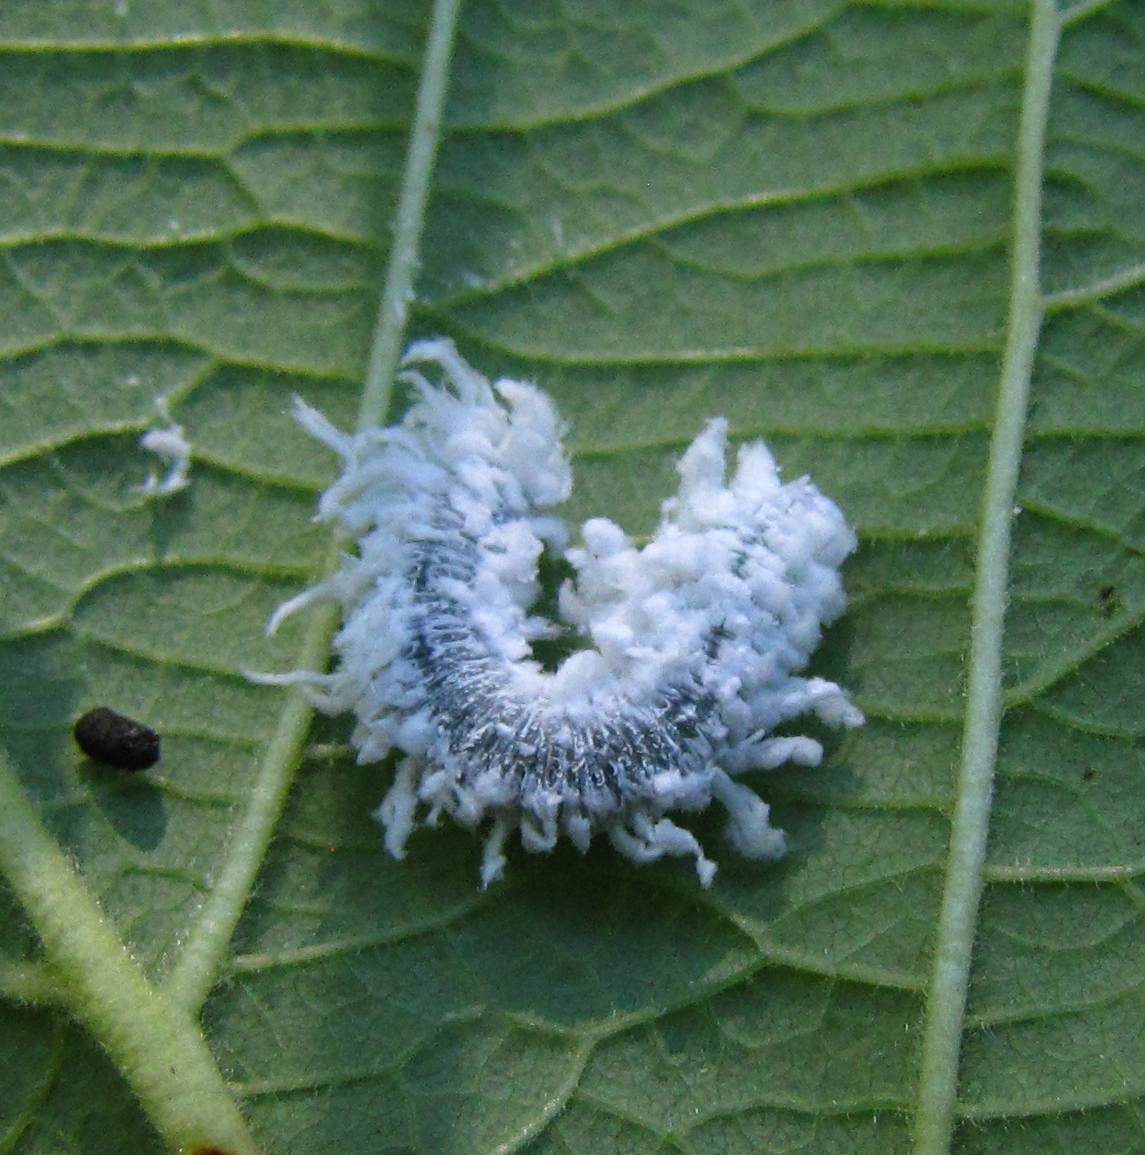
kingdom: Animalia
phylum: Arthropoda
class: Insecta
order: Hymenoptera
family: Tenthredinidae
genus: Eriocampa
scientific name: Eriocampa ovata
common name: Alder wooly sawfly
